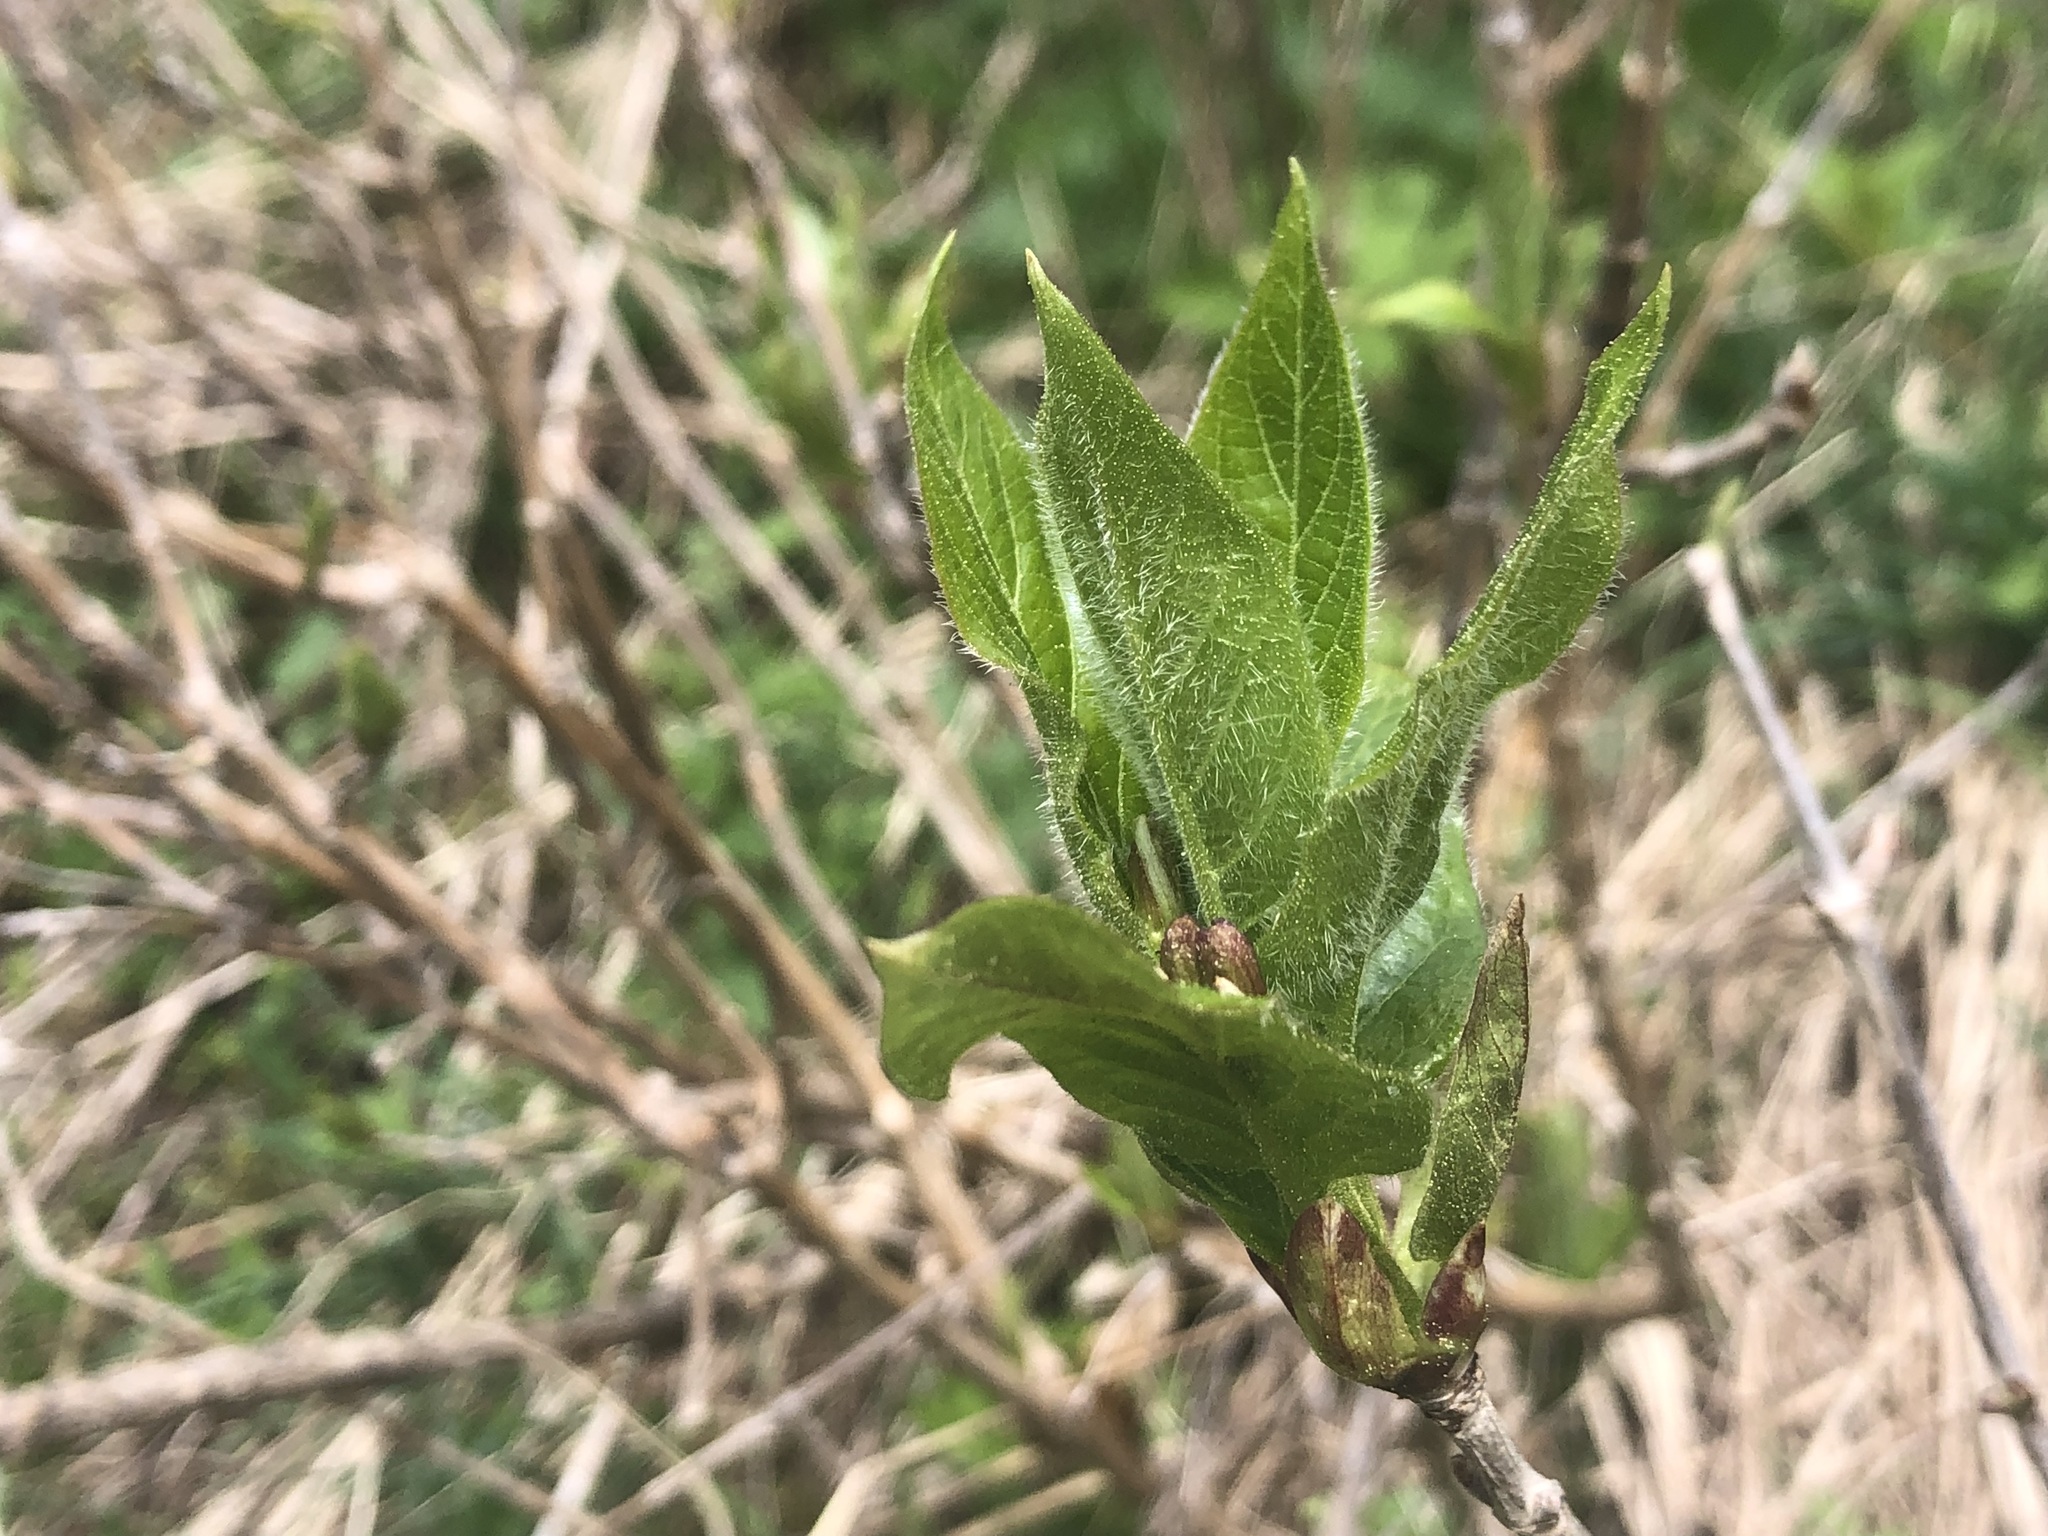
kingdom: Plantae
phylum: Tracheophyta
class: Magnoliopsida
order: Dipsacales
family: Caprifoliaceae
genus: Lonicera
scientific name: Lonicera alpigena
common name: Alpine honeysuckle
